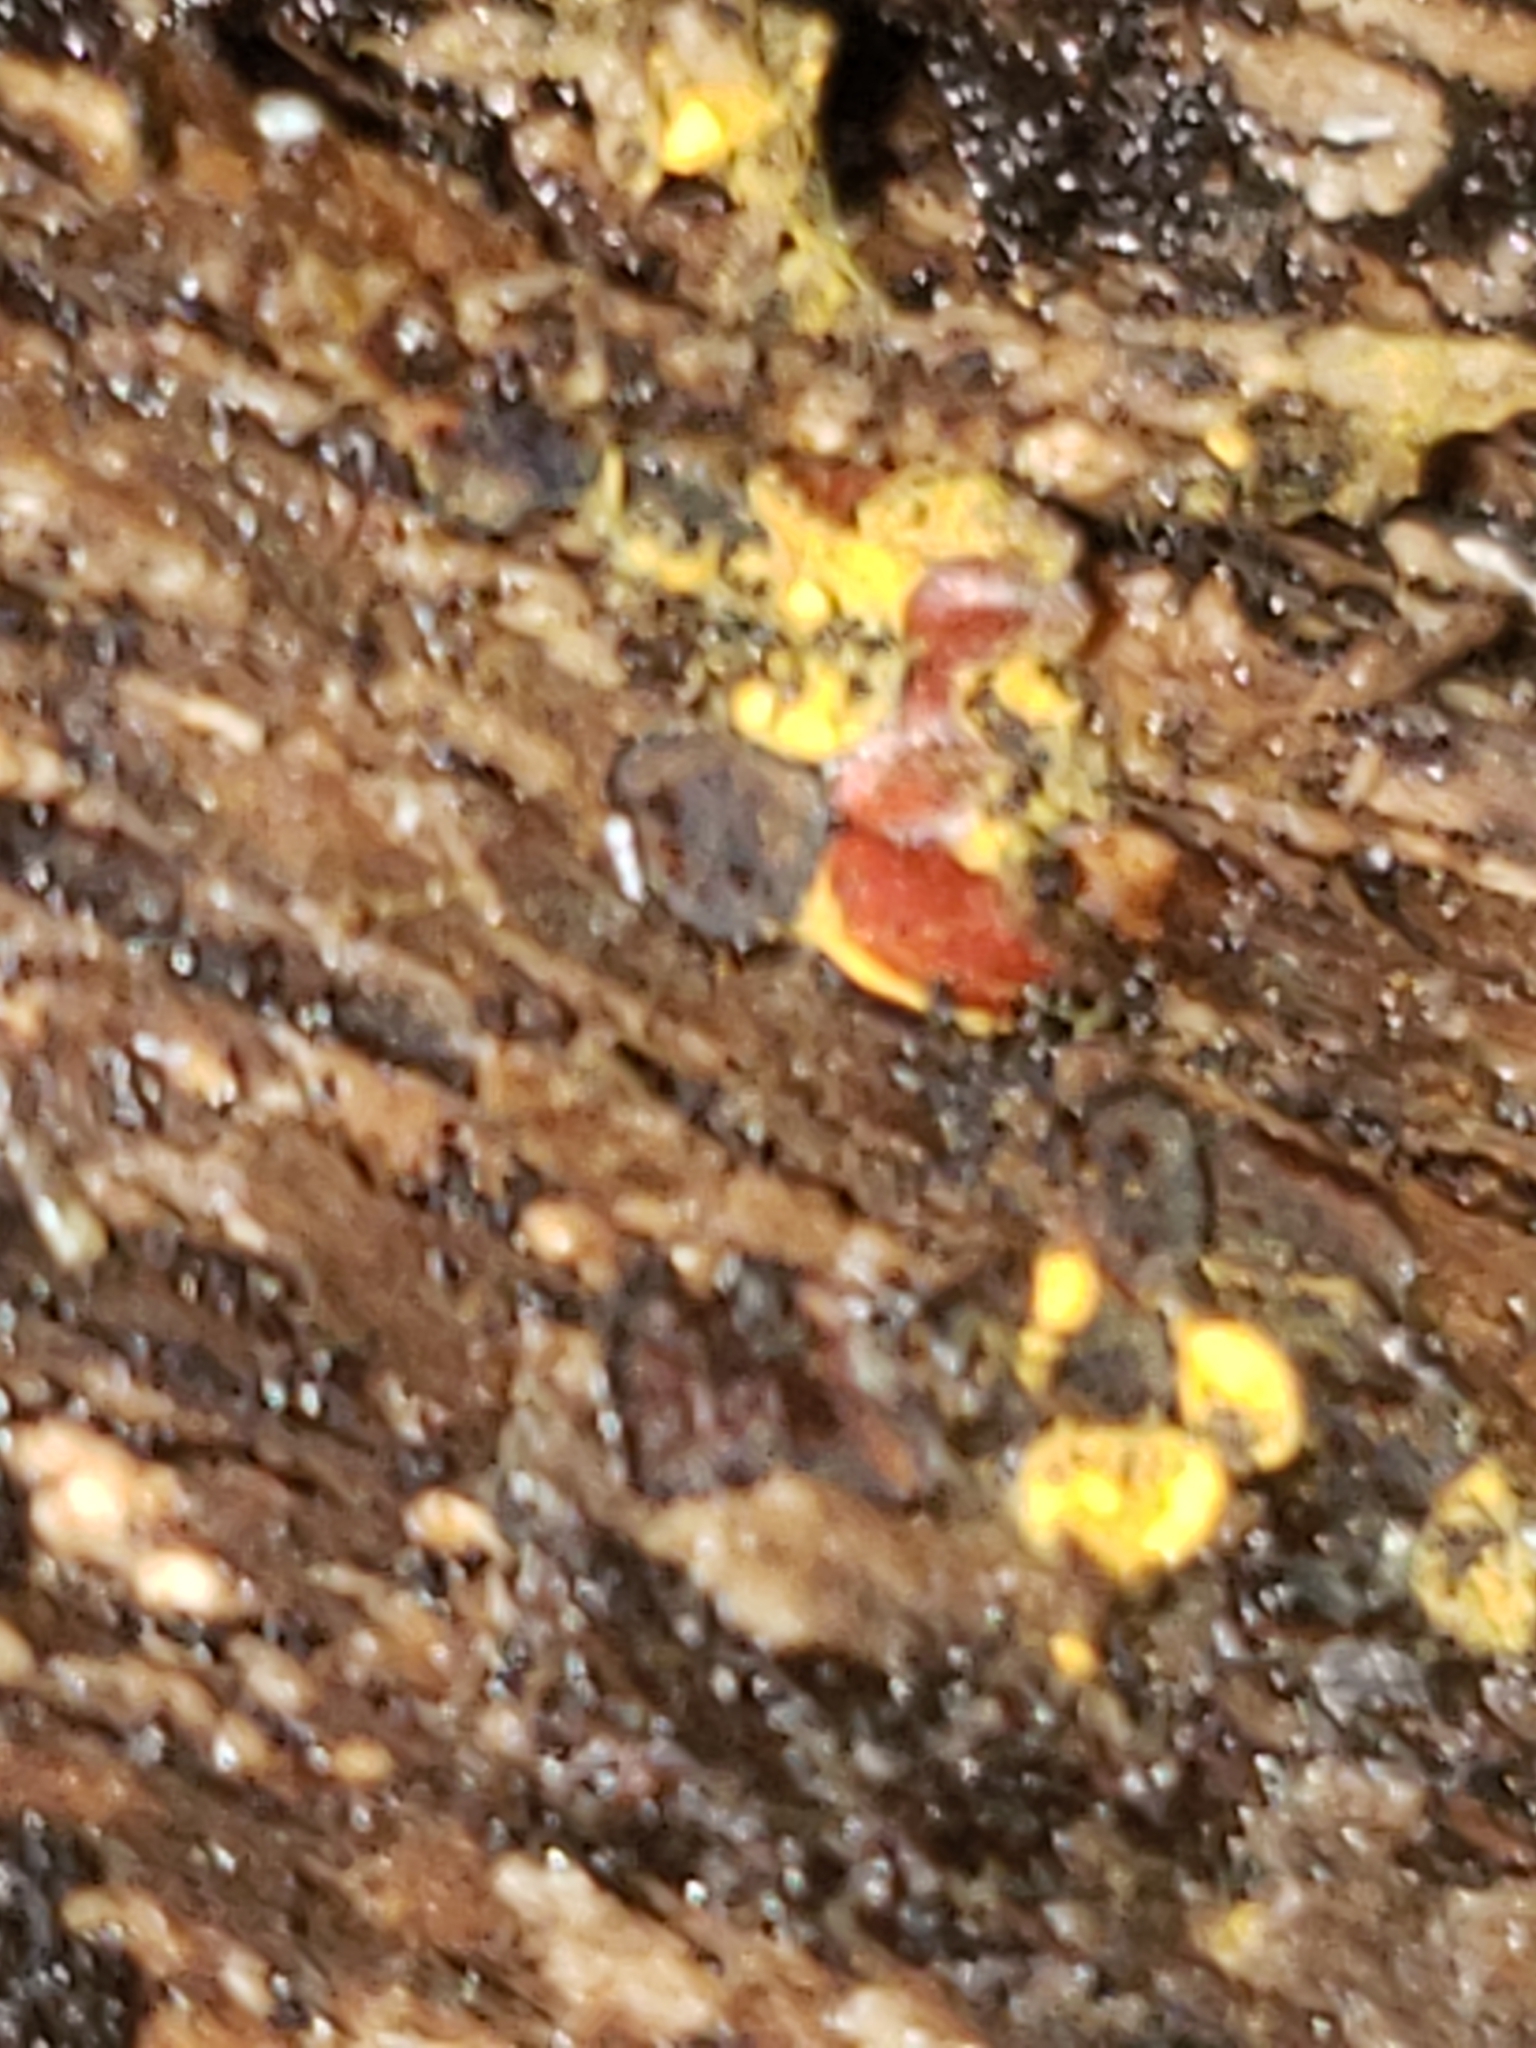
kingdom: Protozoa
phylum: Mycetozoa
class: Myxomycetes
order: Trichiales
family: Trichiaceae
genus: Perichaena
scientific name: Perichaena depressa
